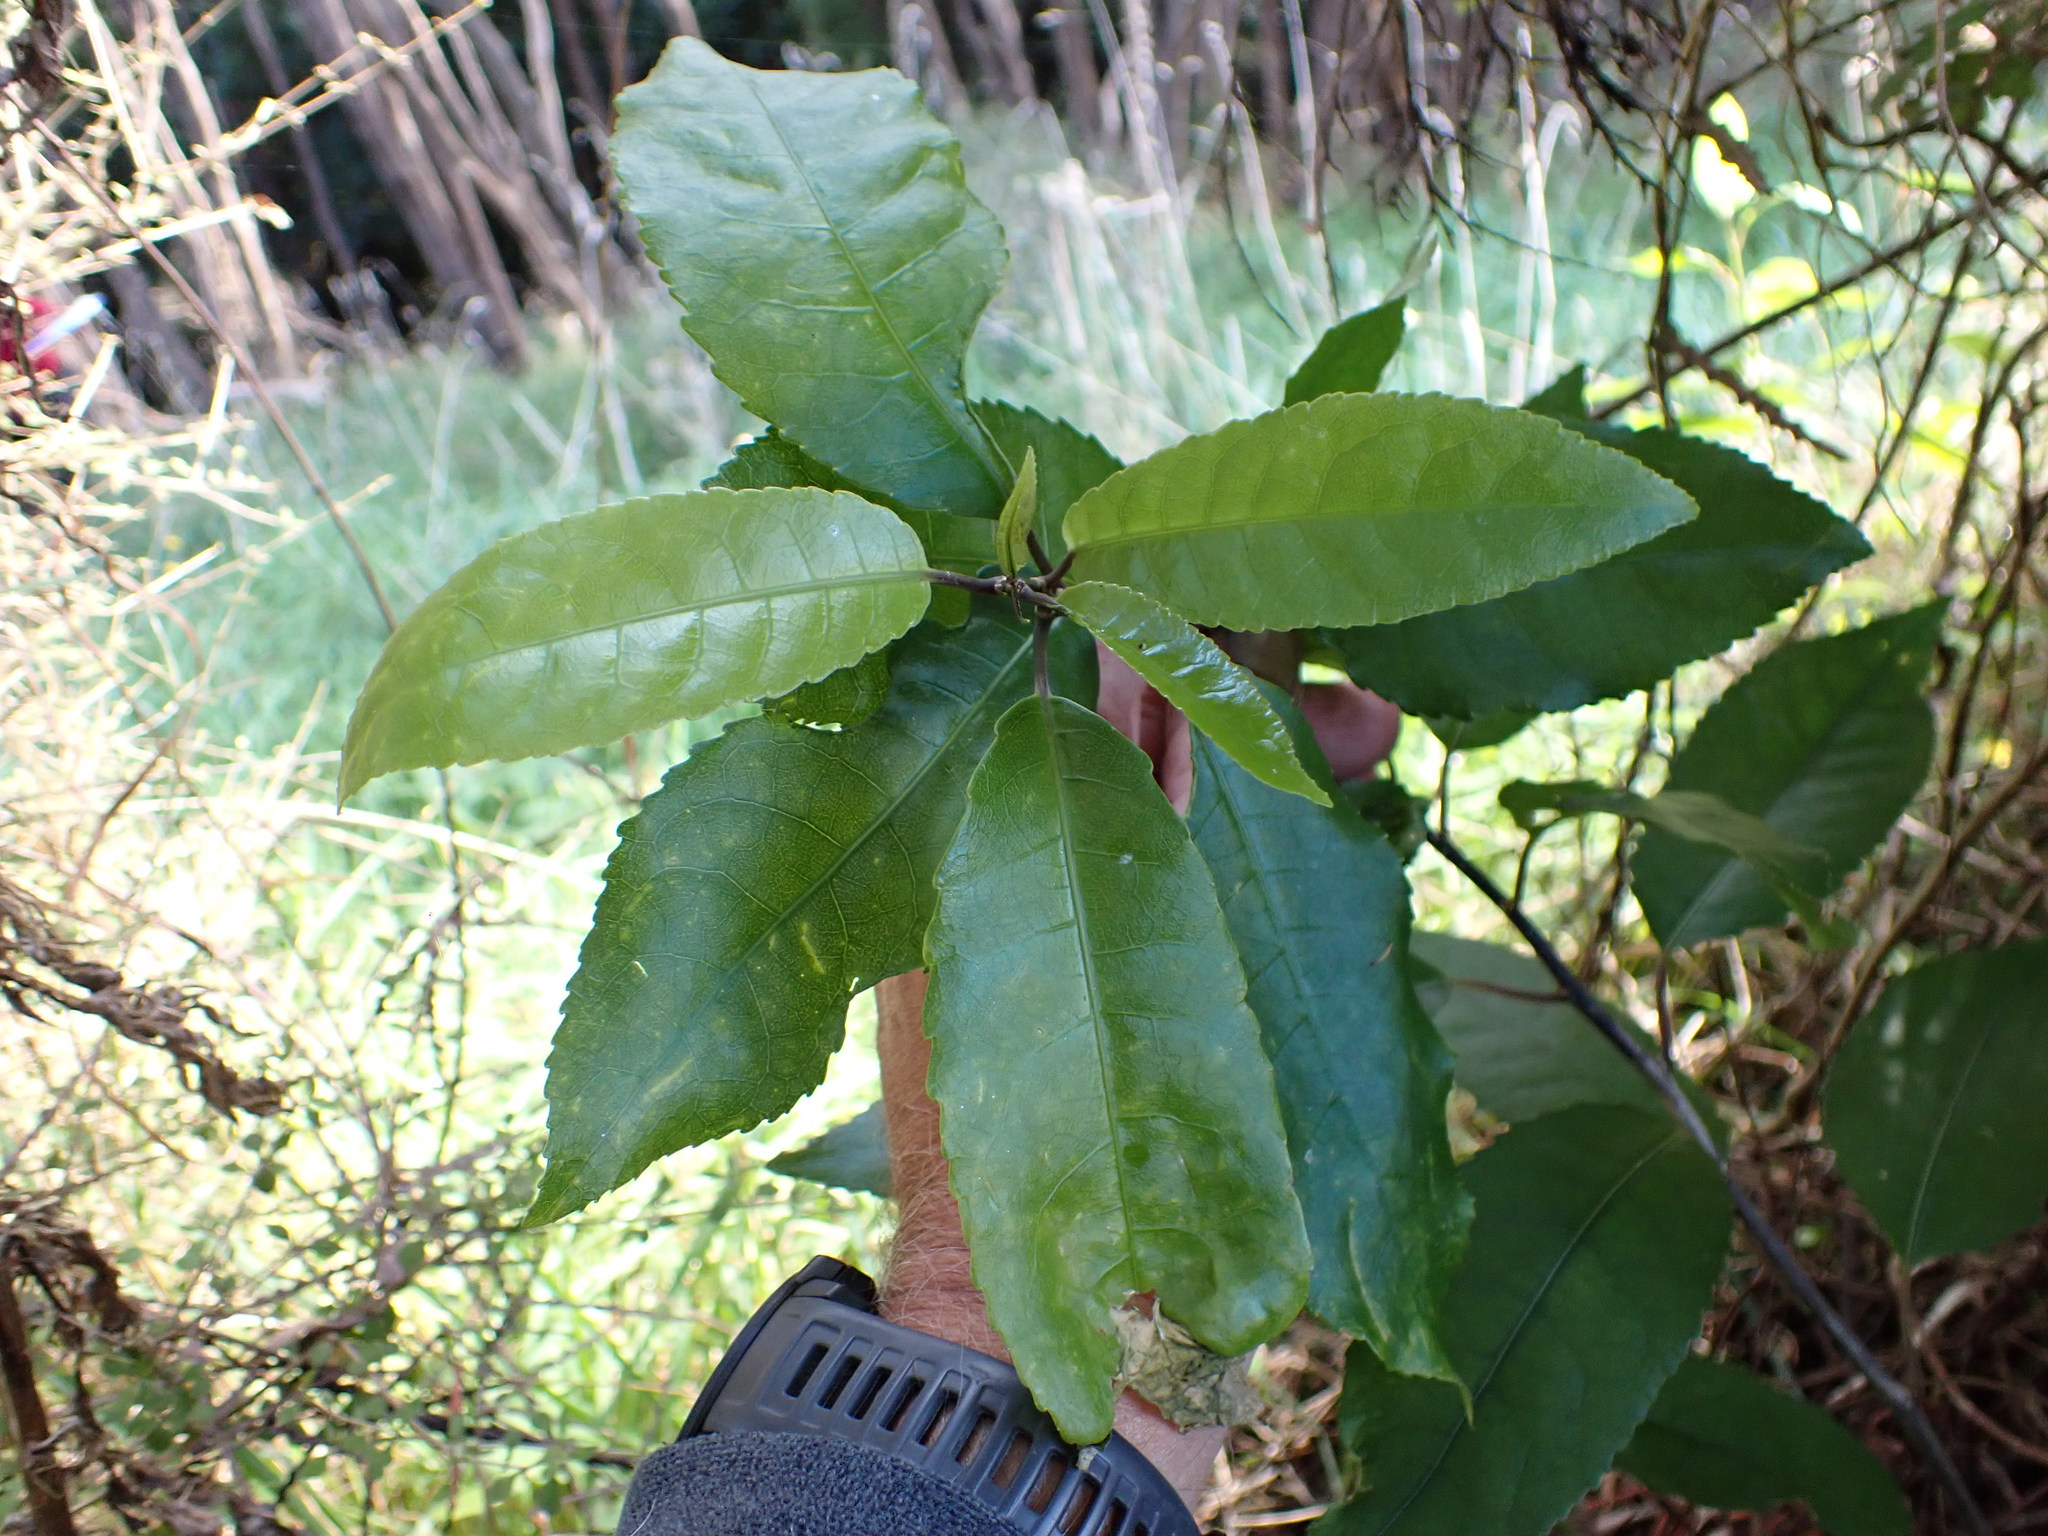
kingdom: Plantae
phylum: Tracheophyta
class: Magnoliopsida
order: Malpighiales
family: Violaceae
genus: Melicytus
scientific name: Melicytus ramiflorus
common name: Mahoe
